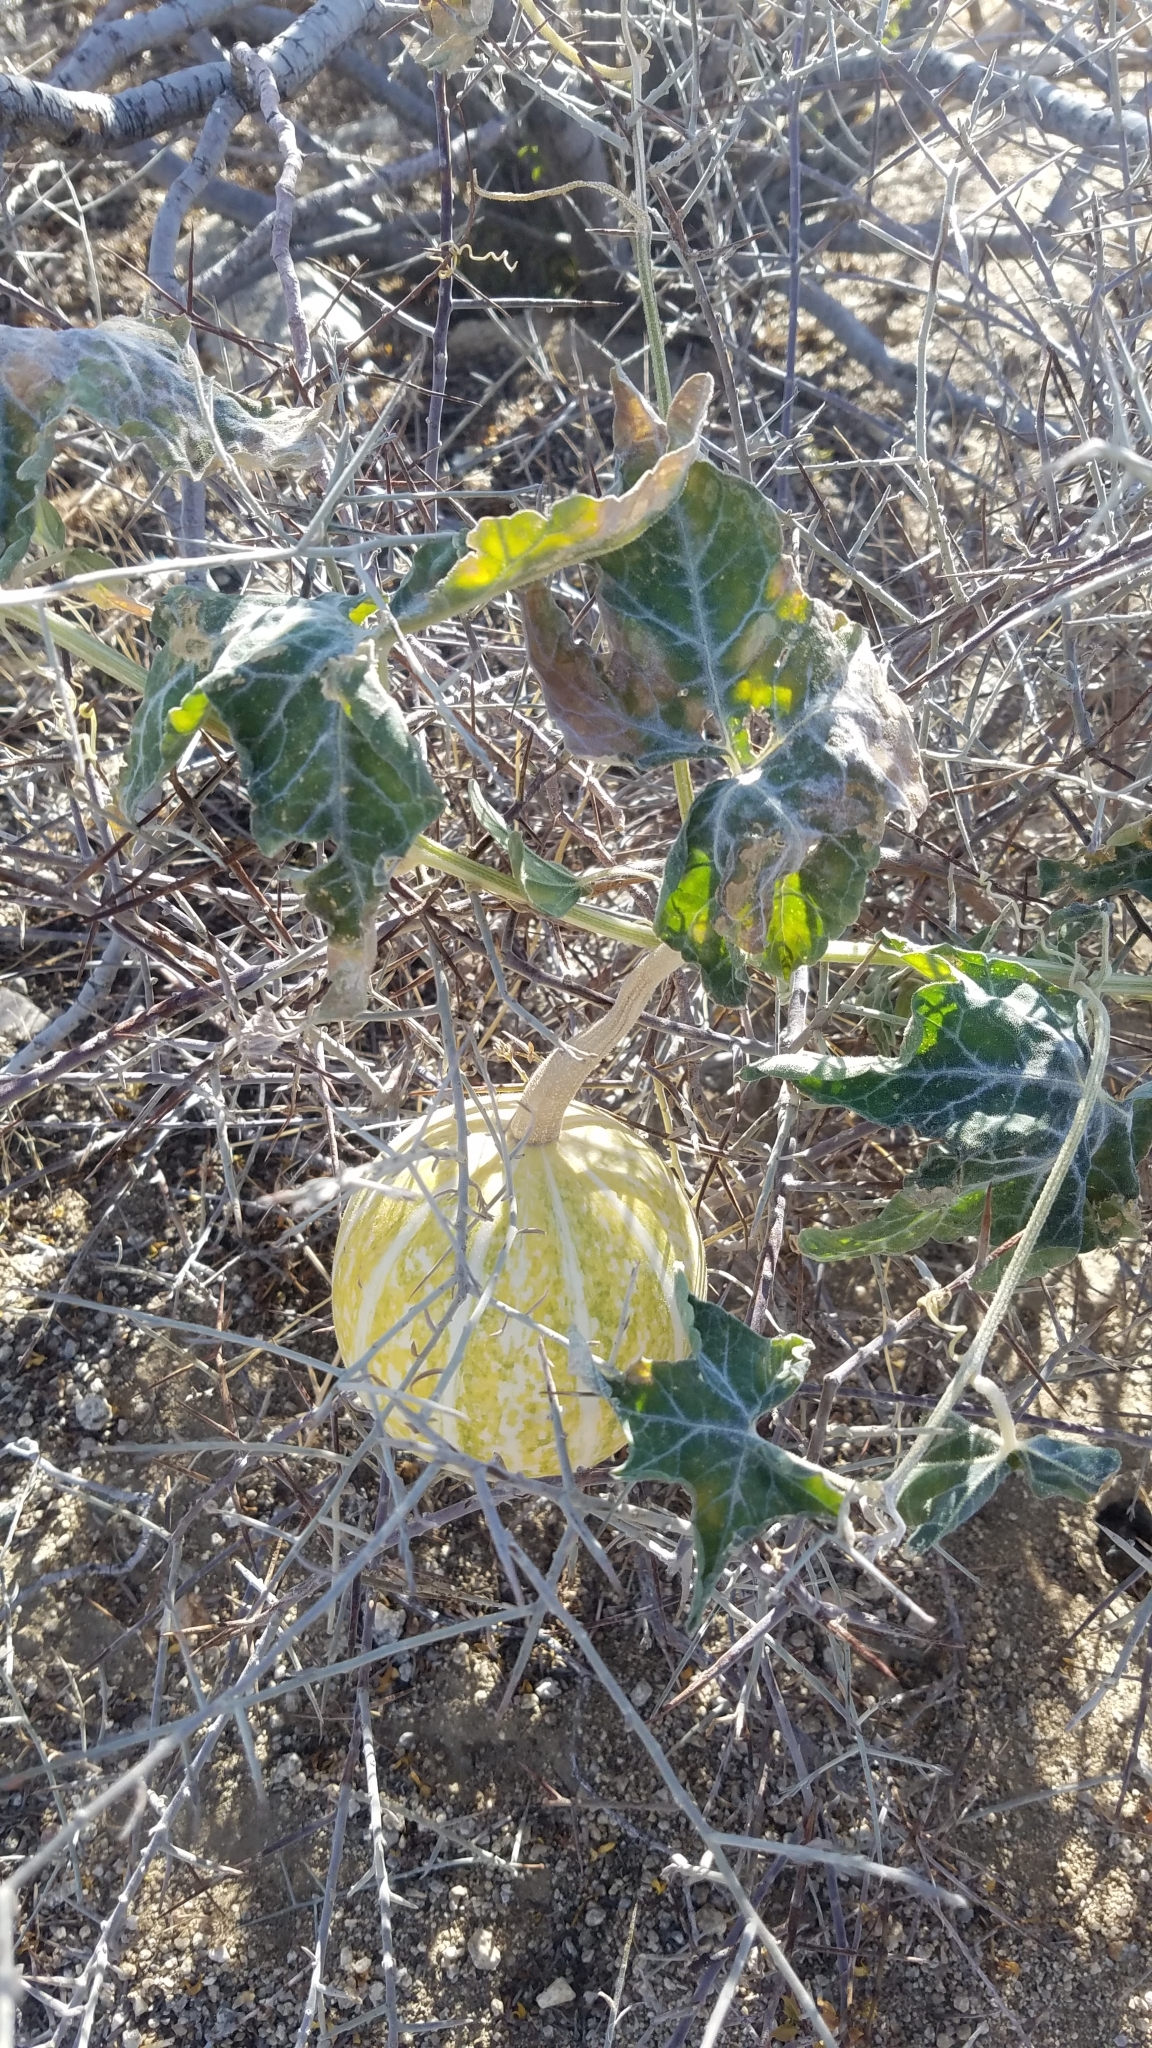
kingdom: Plantae
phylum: Tracheophyta
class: Magnoliopsida
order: Cucurbitales
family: Cucurbitaceae
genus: Cucurbita
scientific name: Cucurbita palmata
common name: Coyote-melon
